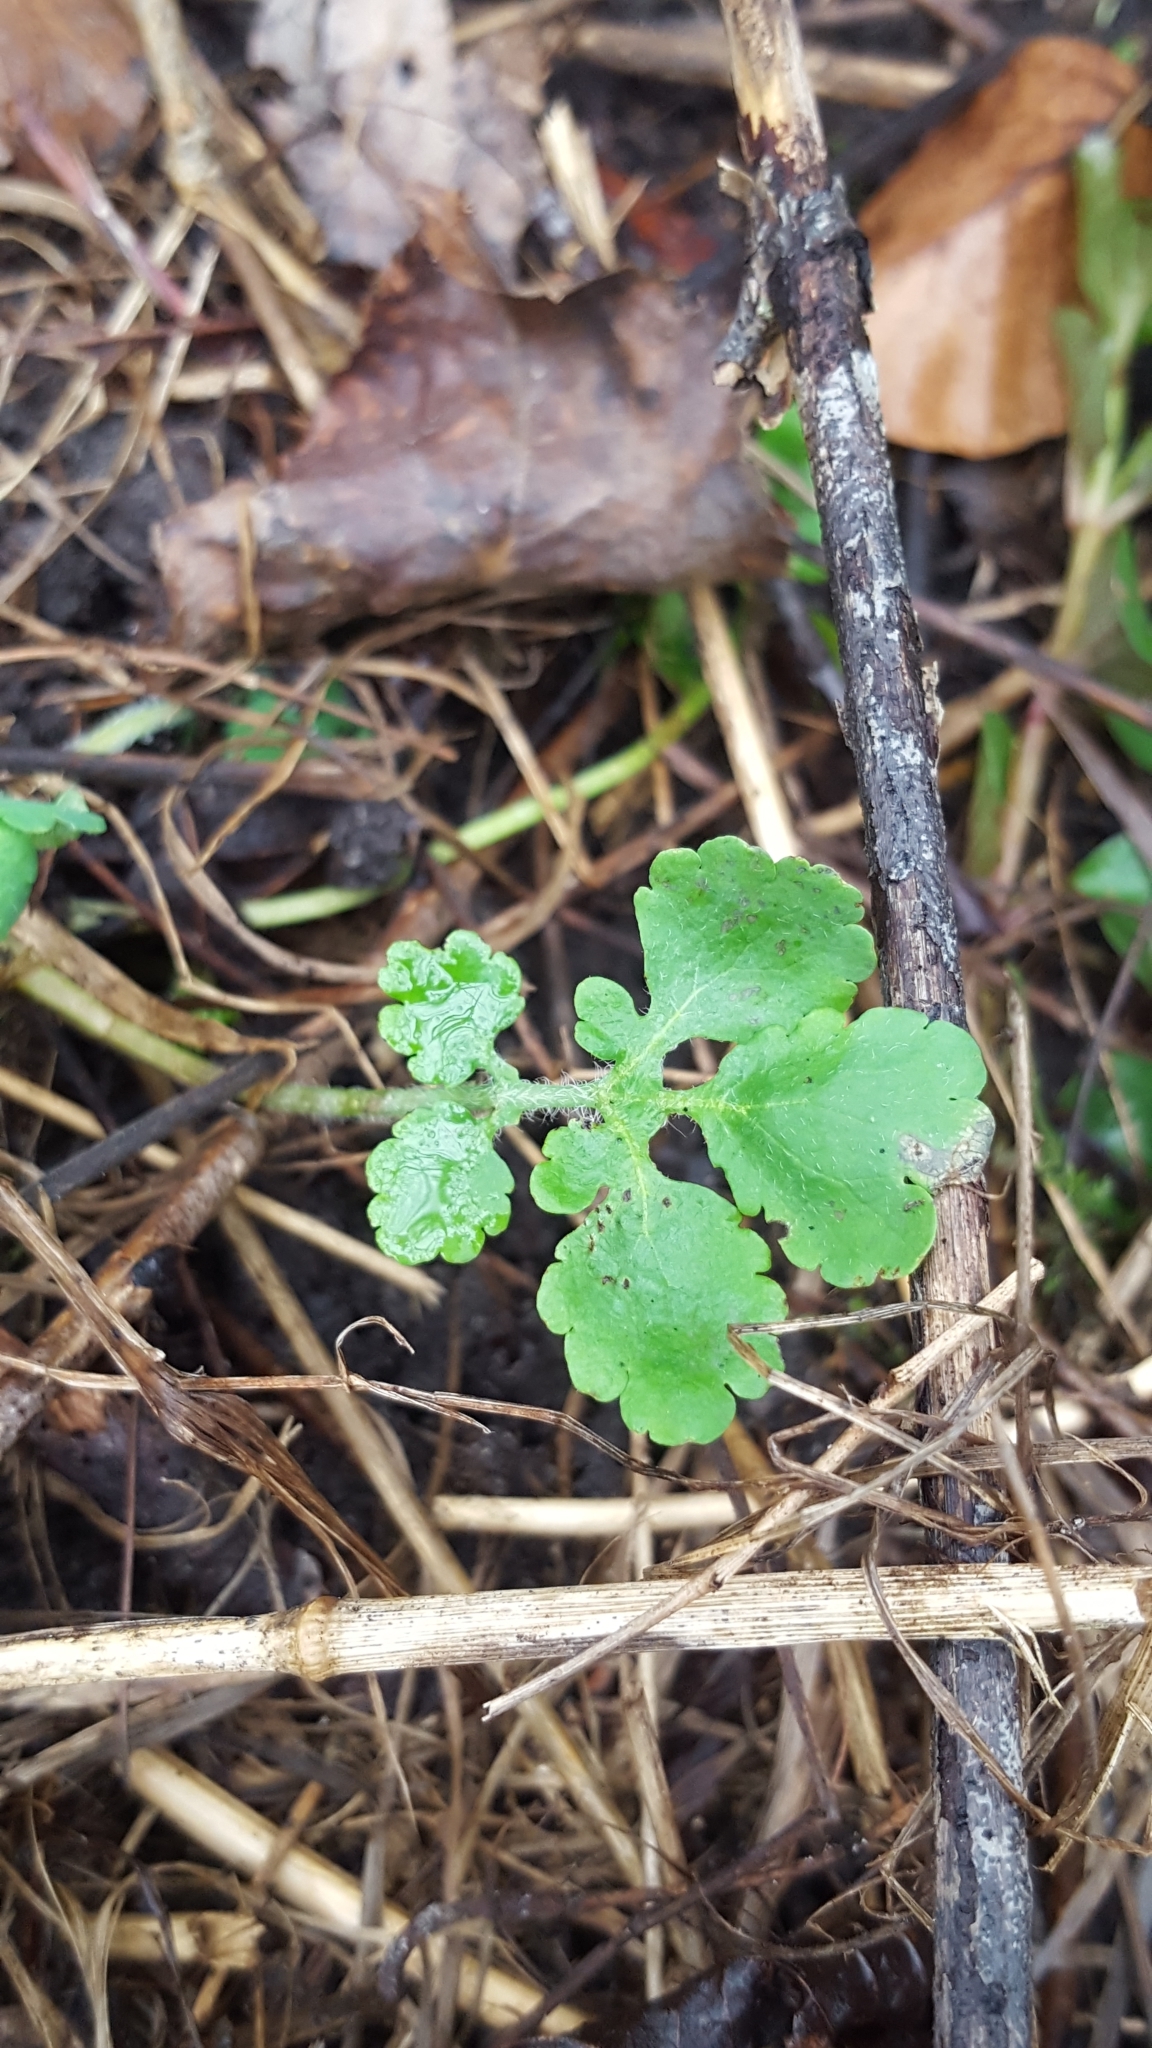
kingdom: Plantae
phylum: Tracheophyta
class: Magnoliopsida
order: Ranunculales
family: Papaveraceae
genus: Chelidonium
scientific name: Chelidonium majus
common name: Greater celandine
